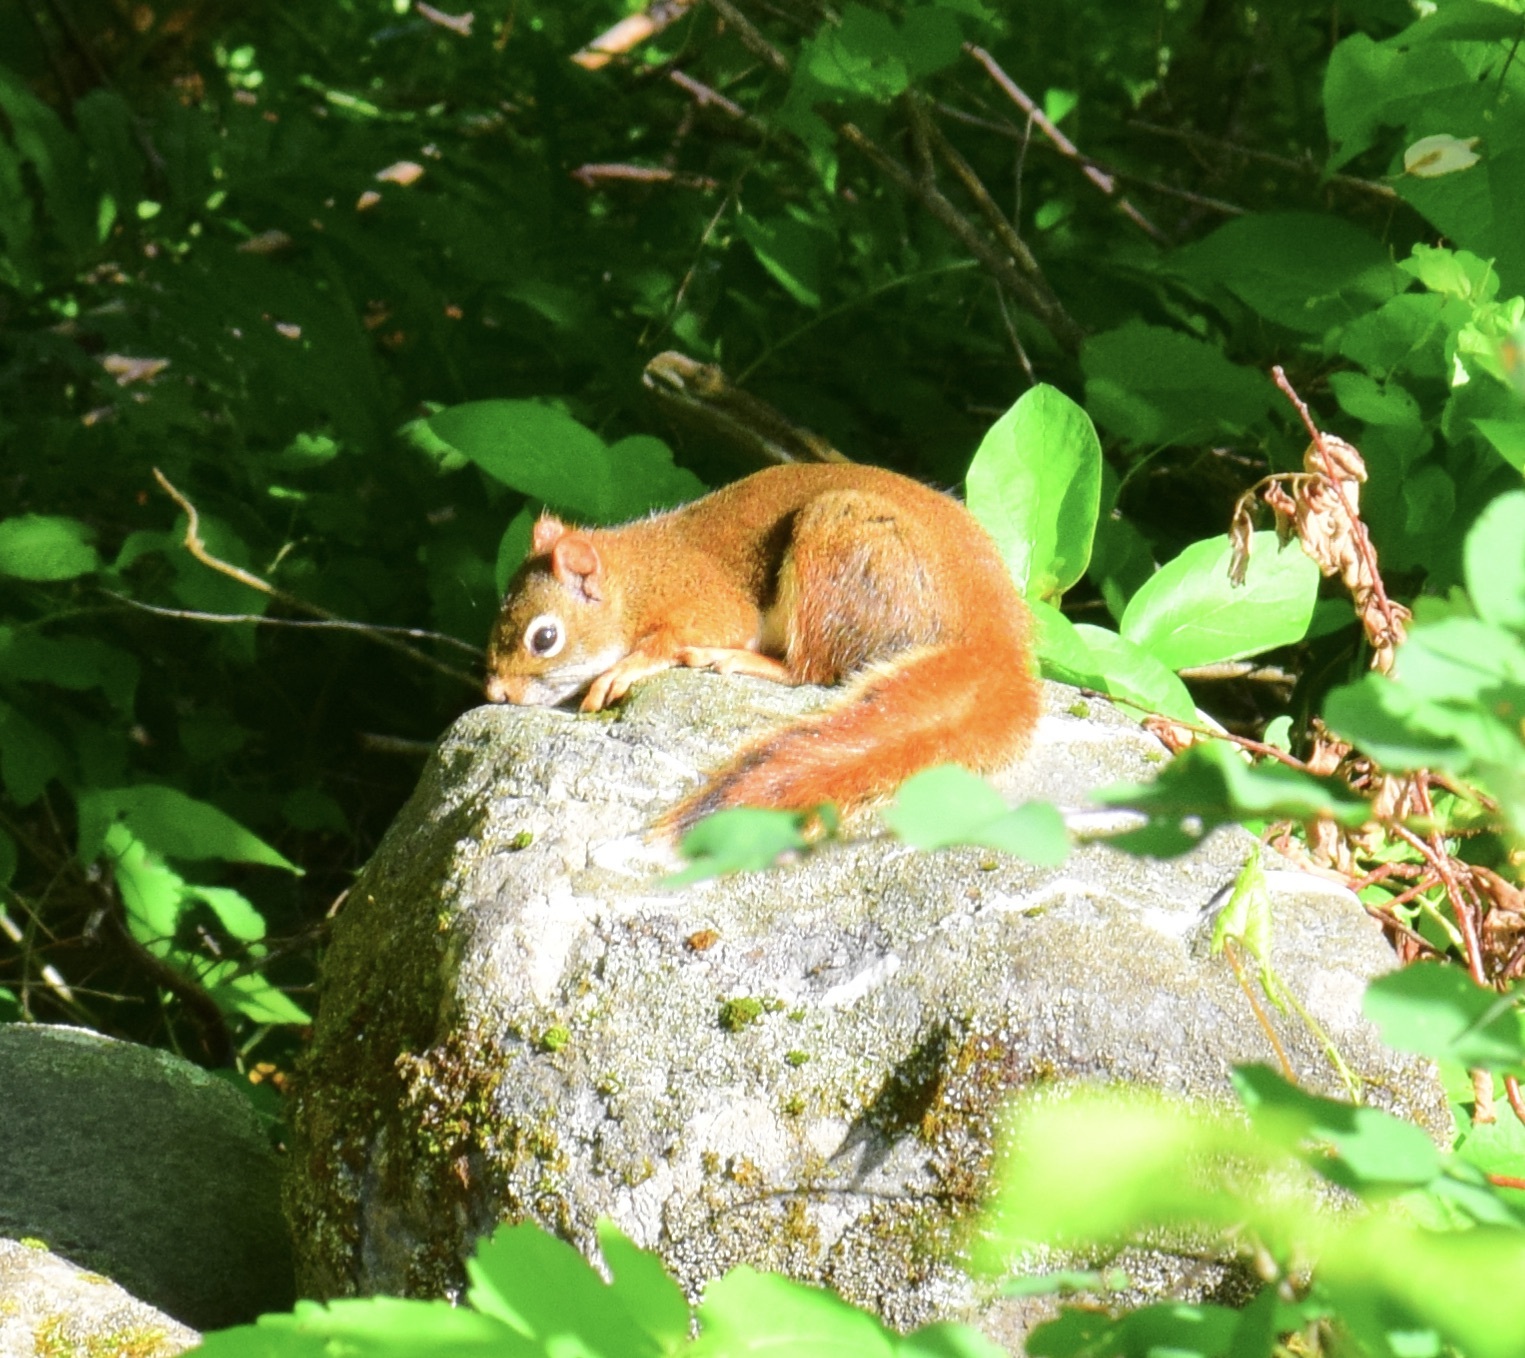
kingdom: Animalia
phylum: Chordata
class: Mammalia
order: Rodentia
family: Sciuridae
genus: Tamiasciurus
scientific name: Tamiasciurus hudsonicus
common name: Red squirrel
